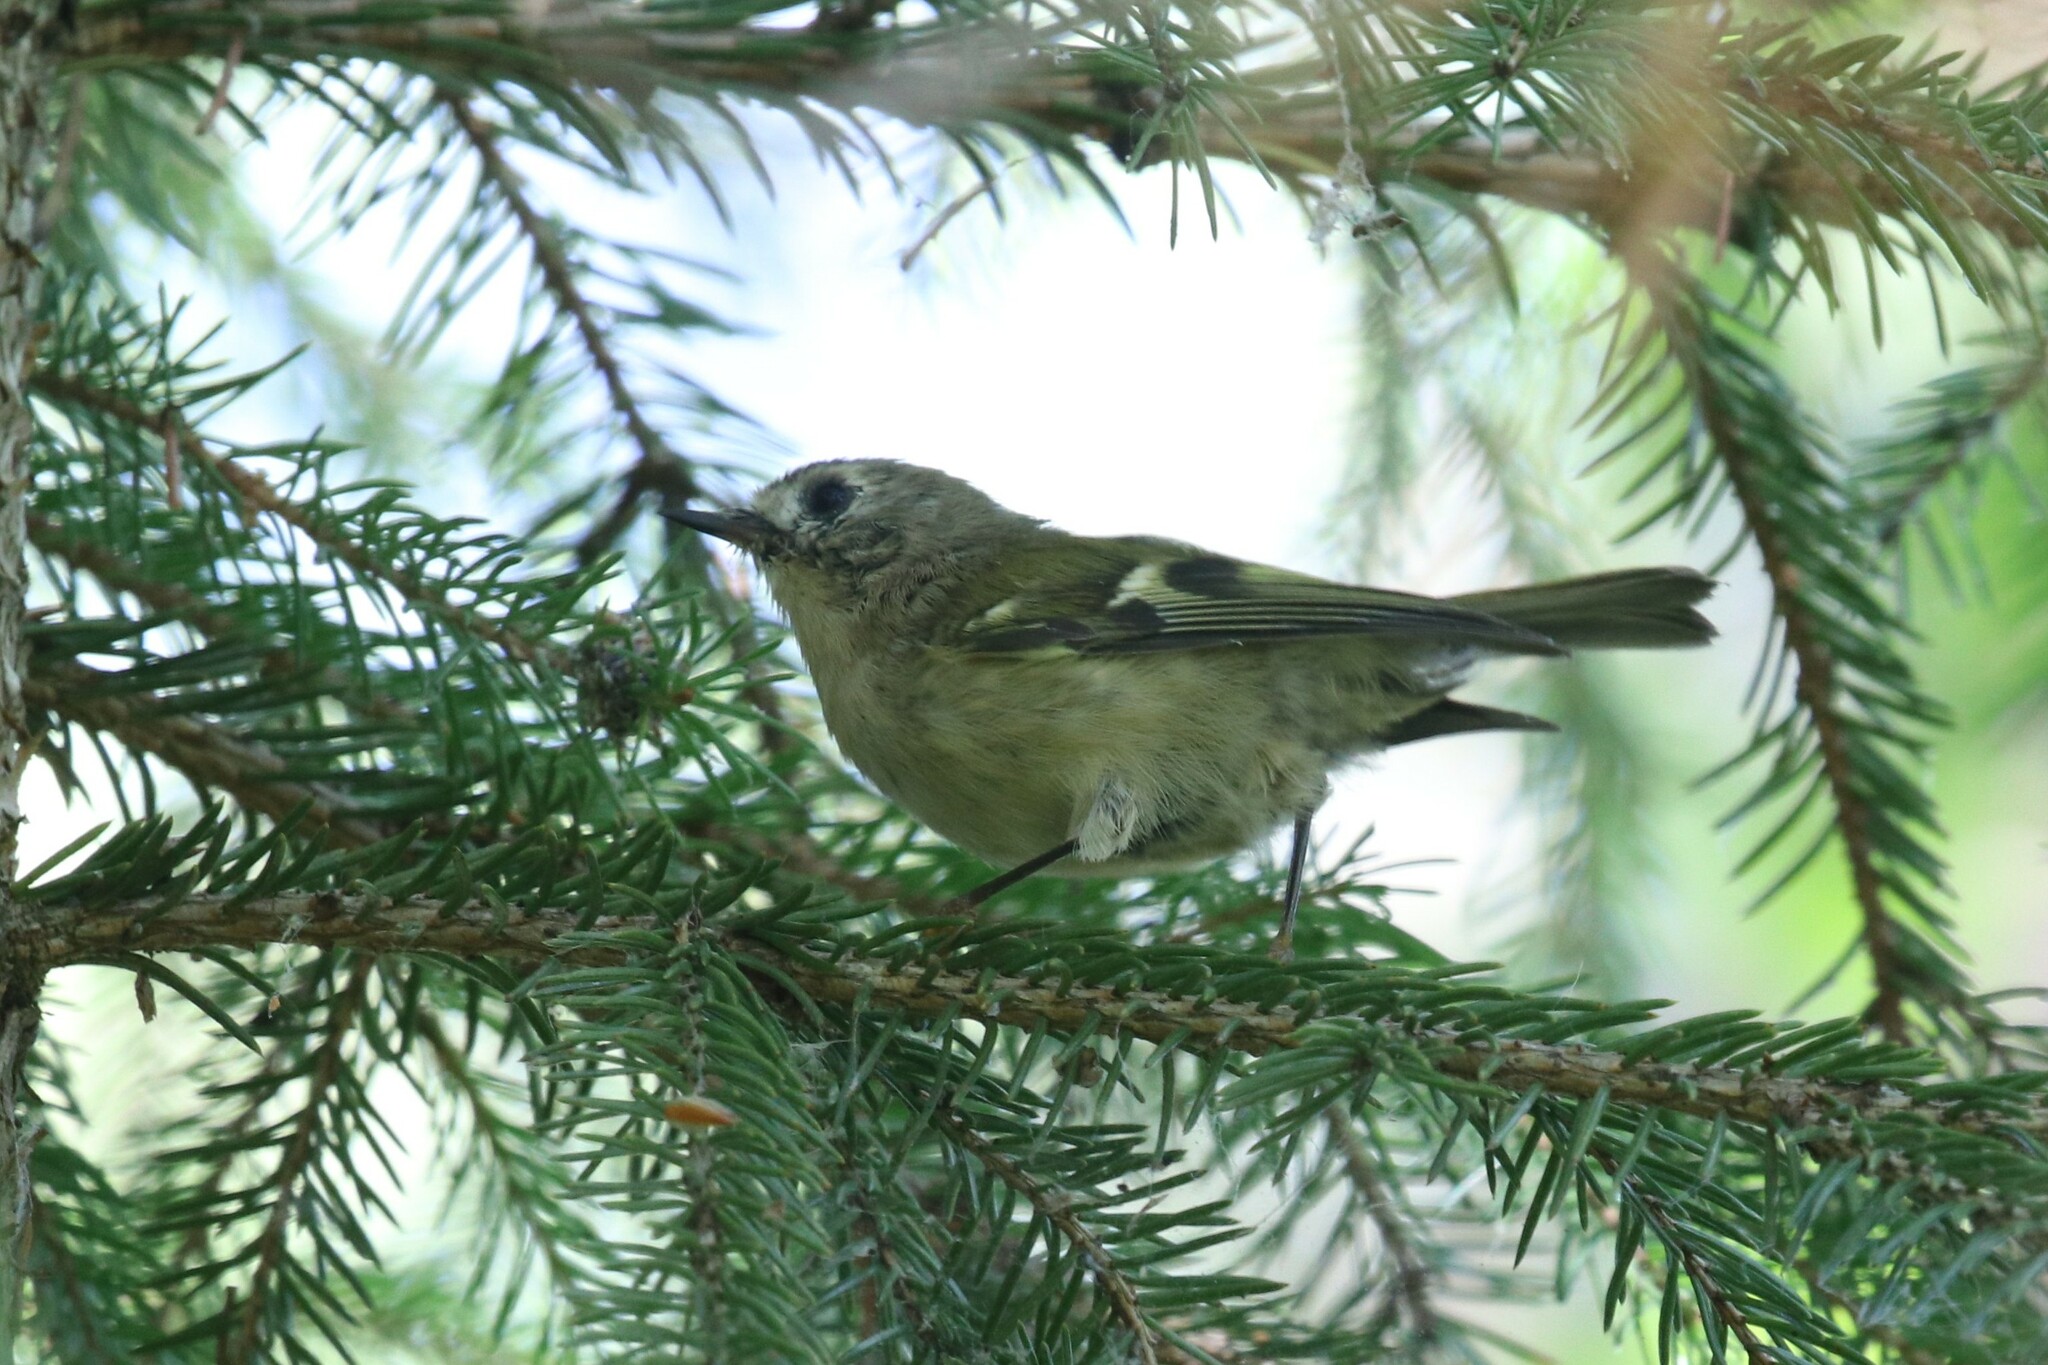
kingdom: Animalia
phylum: Chordata
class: Aves
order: Passeriformes
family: Regulidae
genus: Regulus
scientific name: Regulus regulus
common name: Goldcrest
